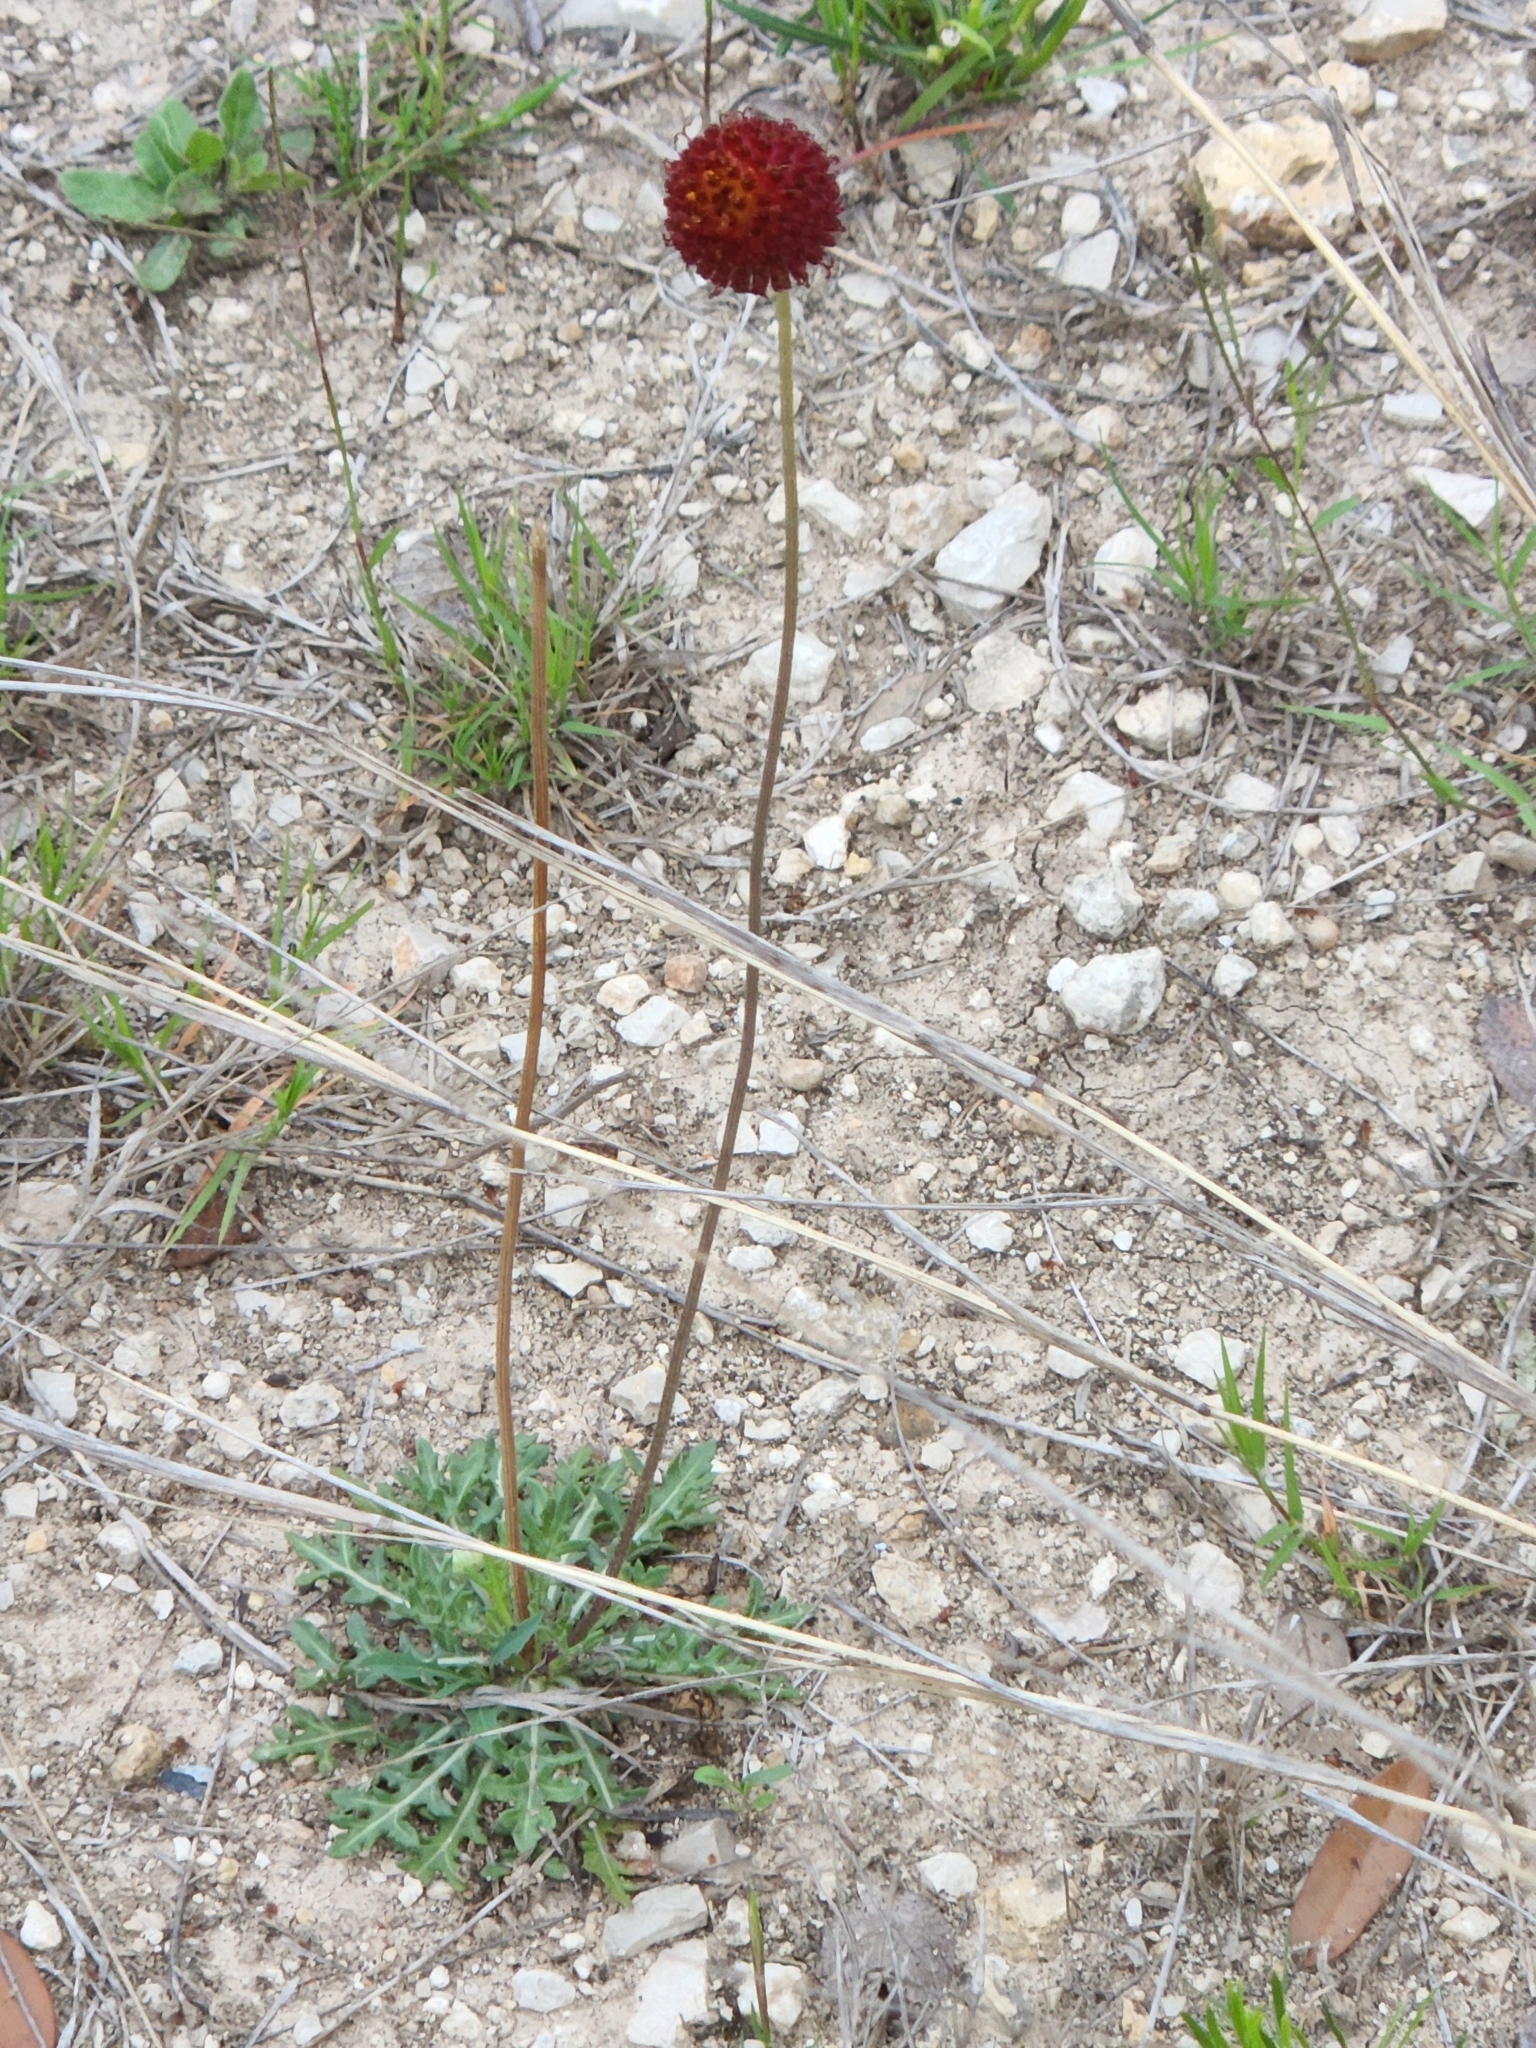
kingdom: Plantae
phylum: Tracheophyta
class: Magnoliopsida
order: Asterales
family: Asteraceae
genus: Gaillardia
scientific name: Gaillardia suavis
